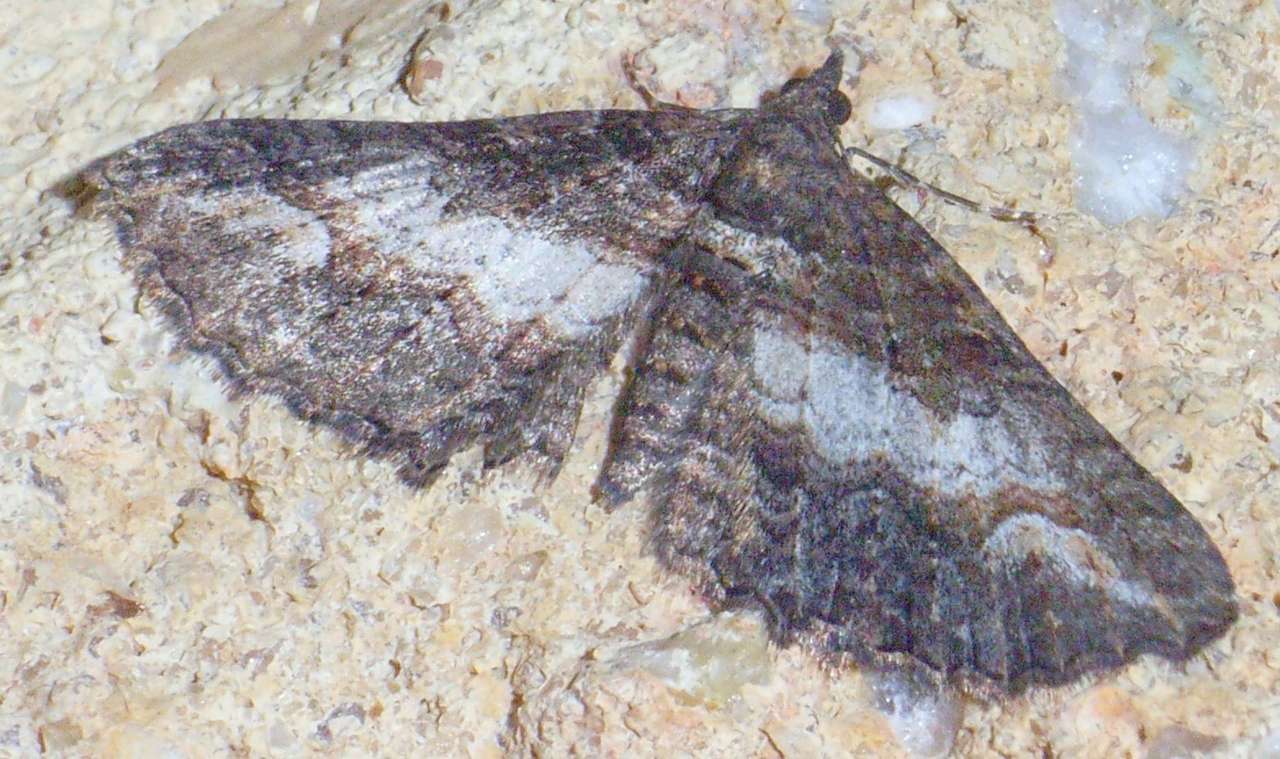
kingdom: Animalia
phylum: Arthropoda
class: Insecta
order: Lepidoptera
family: Geometridae
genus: Eupithecia
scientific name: Eupithecia Eucymatoge scotodes
